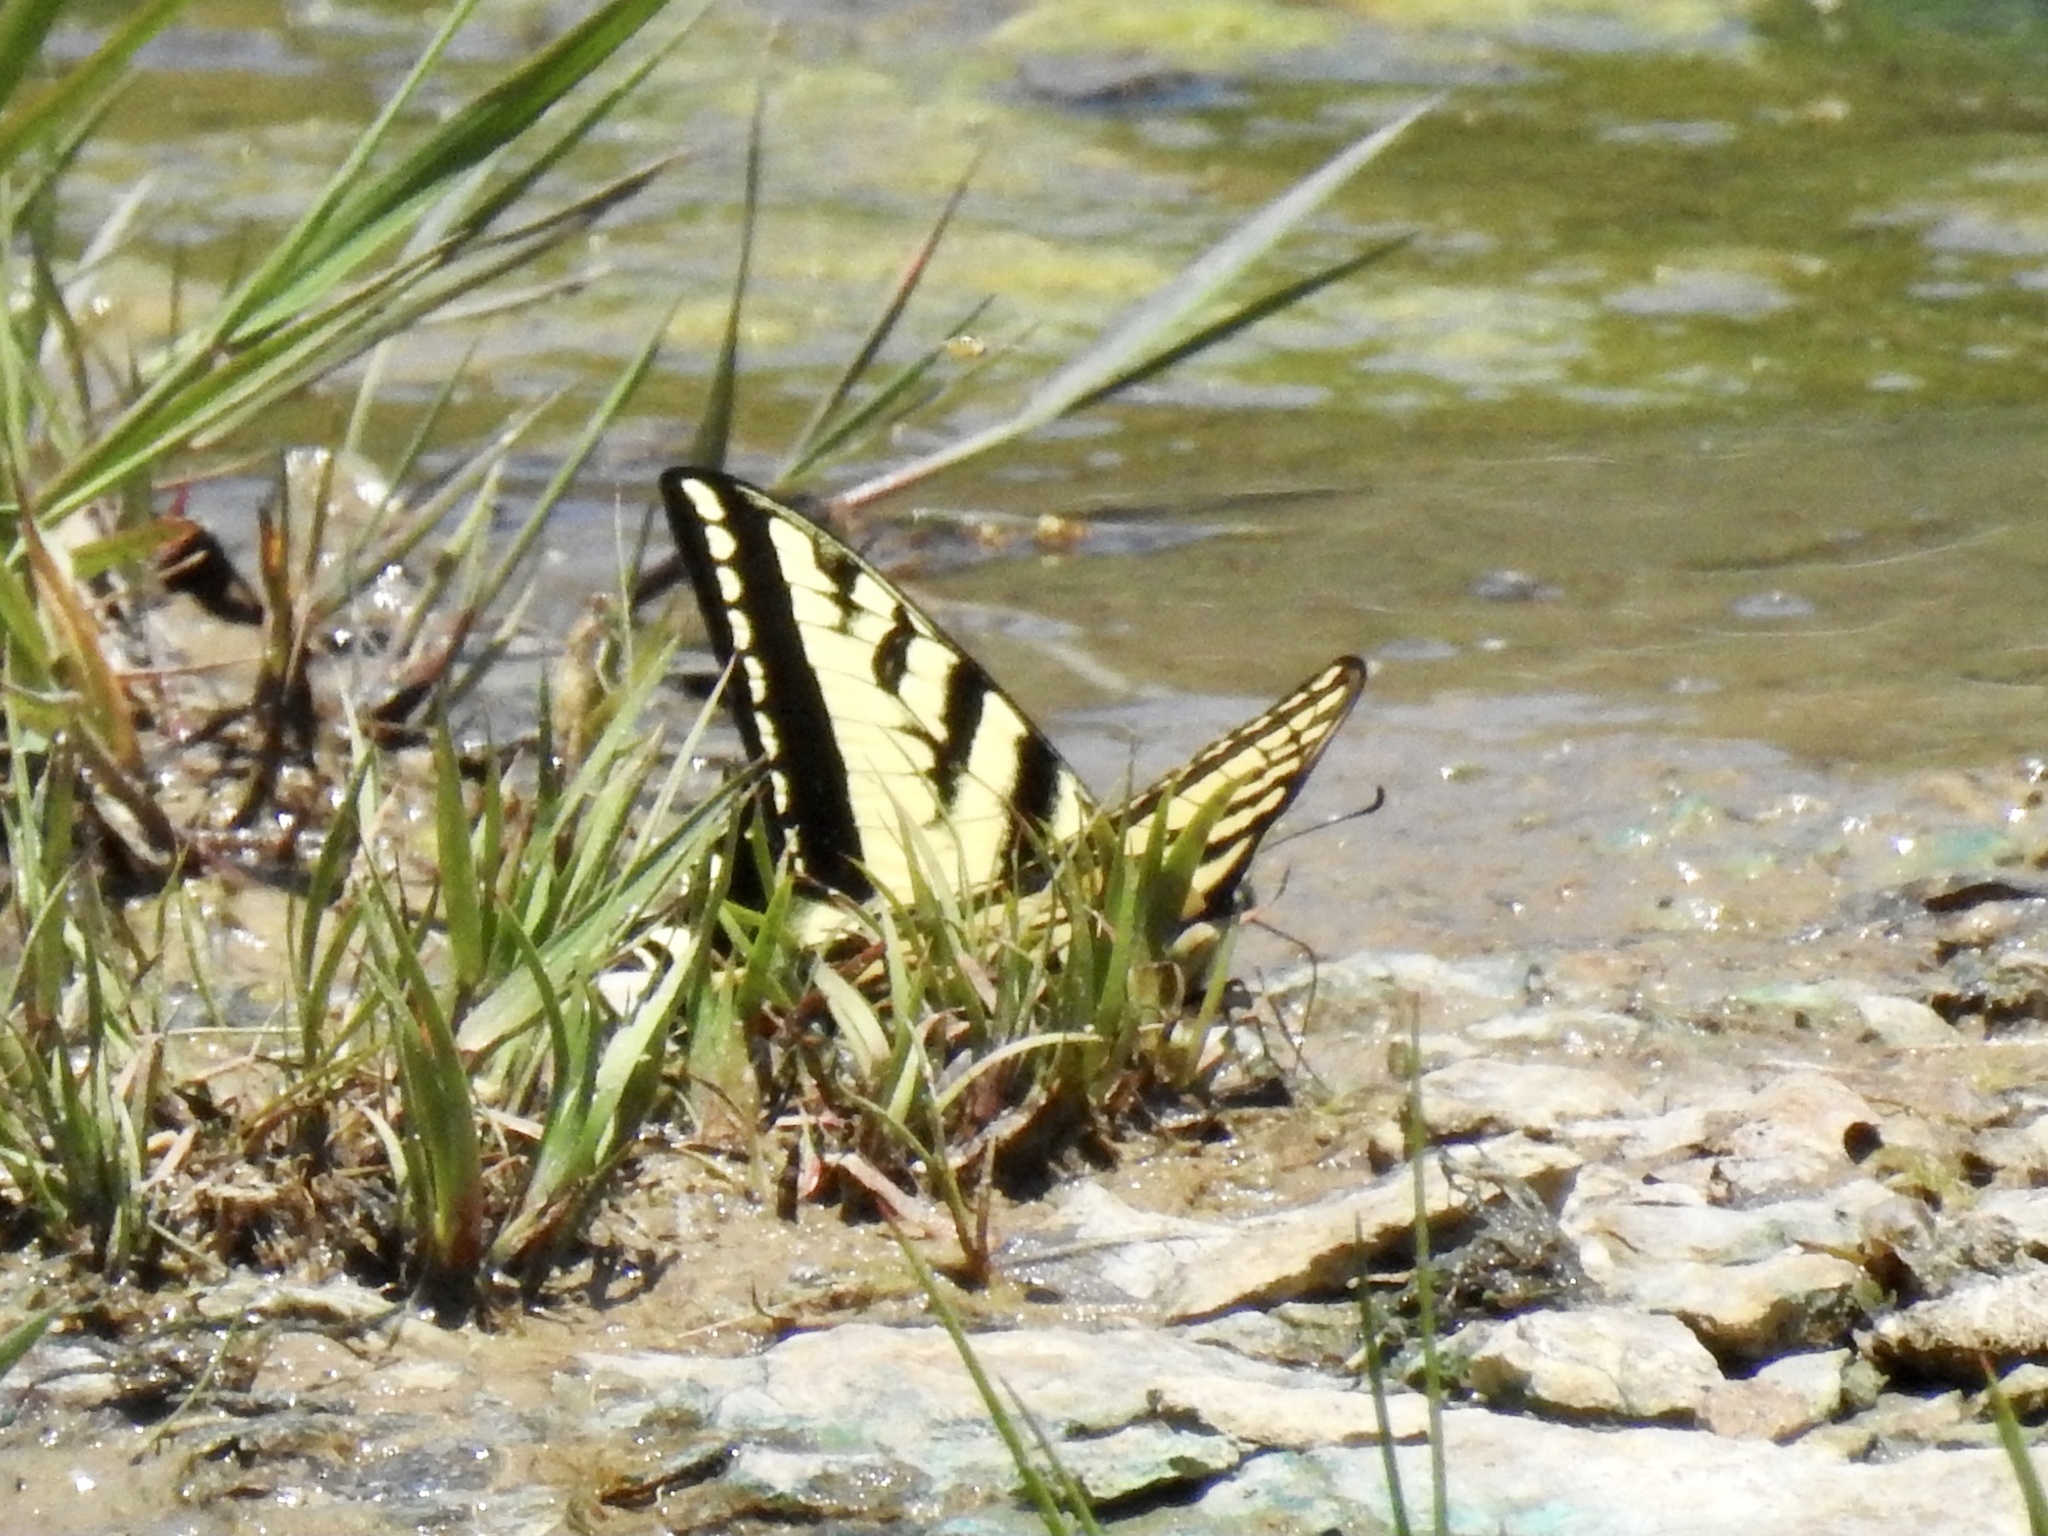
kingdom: Animalia
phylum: Arthropoda
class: Insecta
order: Lepidoptera
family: Papilionidae
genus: Papilio
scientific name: Papilio rutulus
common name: Western tiger swallowtail
